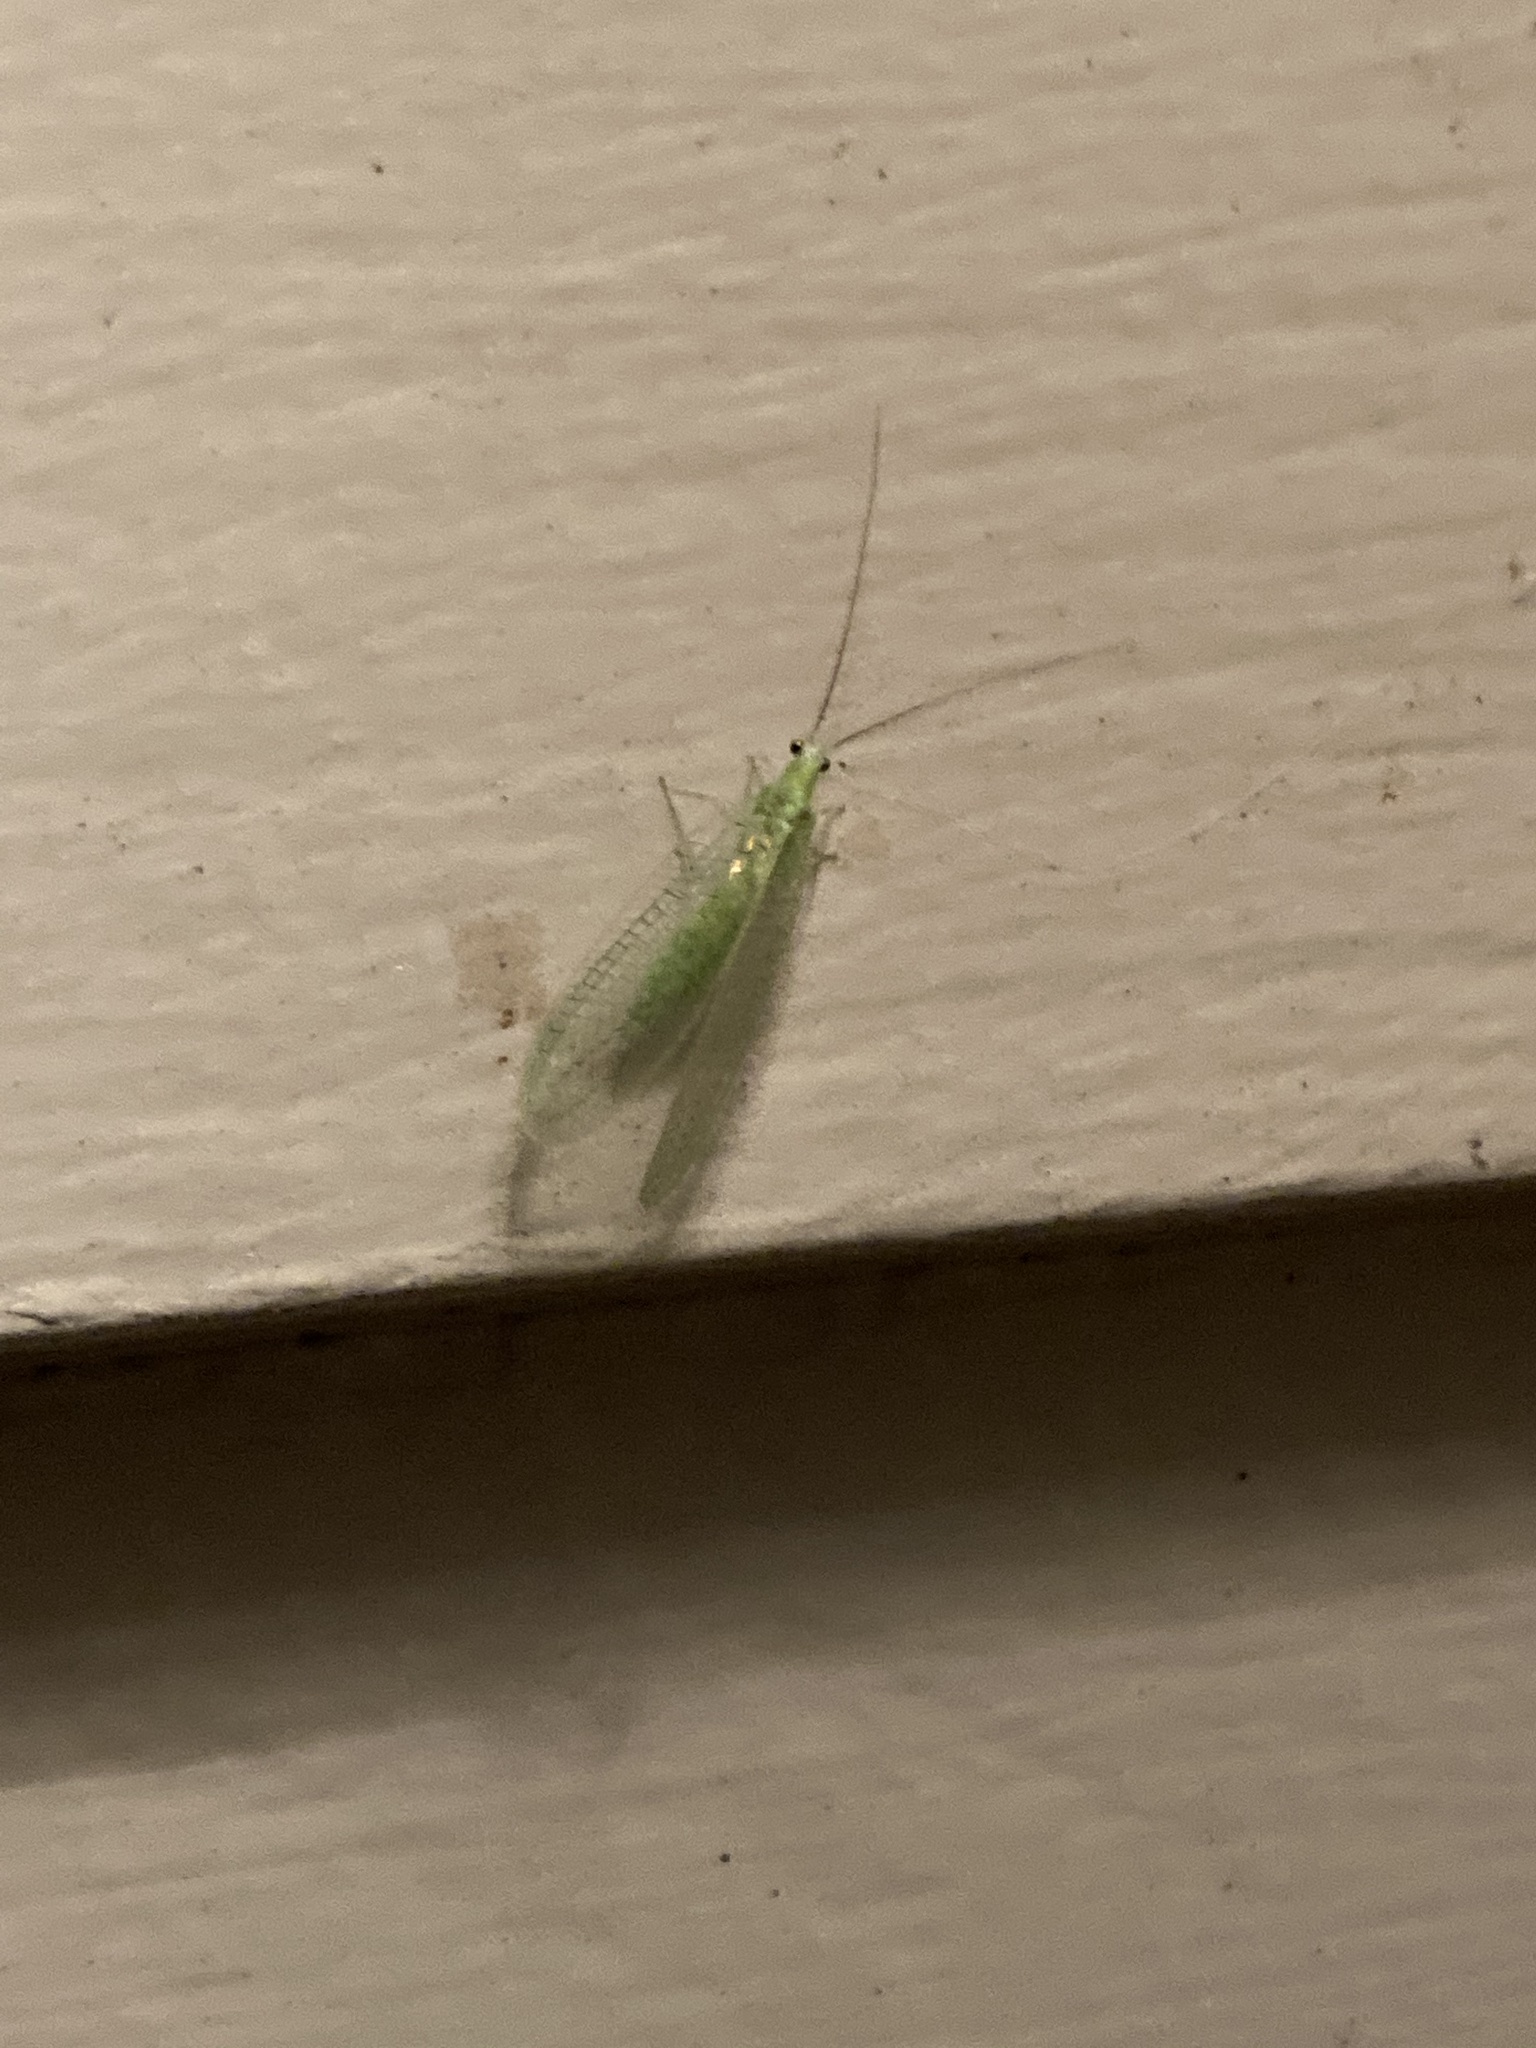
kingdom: Animalia
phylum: Arthropoda
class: Insecta
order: Neuroptera
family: Chrysopidae
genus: Chrysopa
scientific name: Chrysopa nigricornis
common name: Black-horned green lacewing
